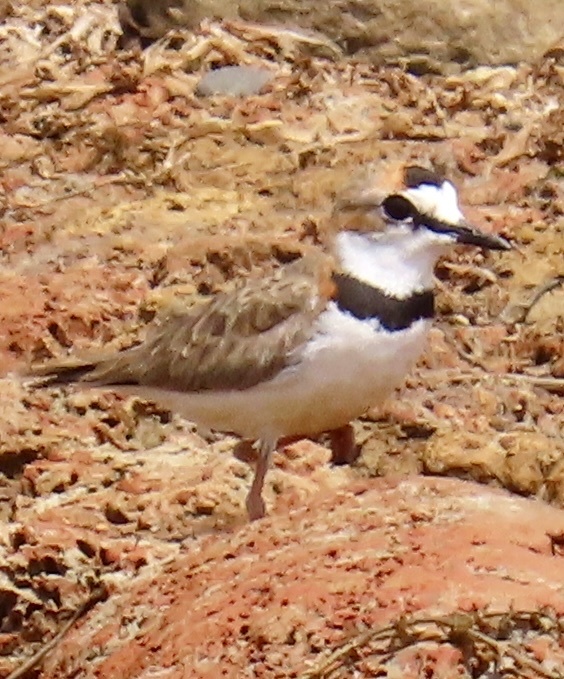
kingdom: Animalia
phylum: Chordata
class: Aves
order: Charadriiformes
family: Charadriidae
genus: Anarhynchus
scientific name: Anarhynchus
